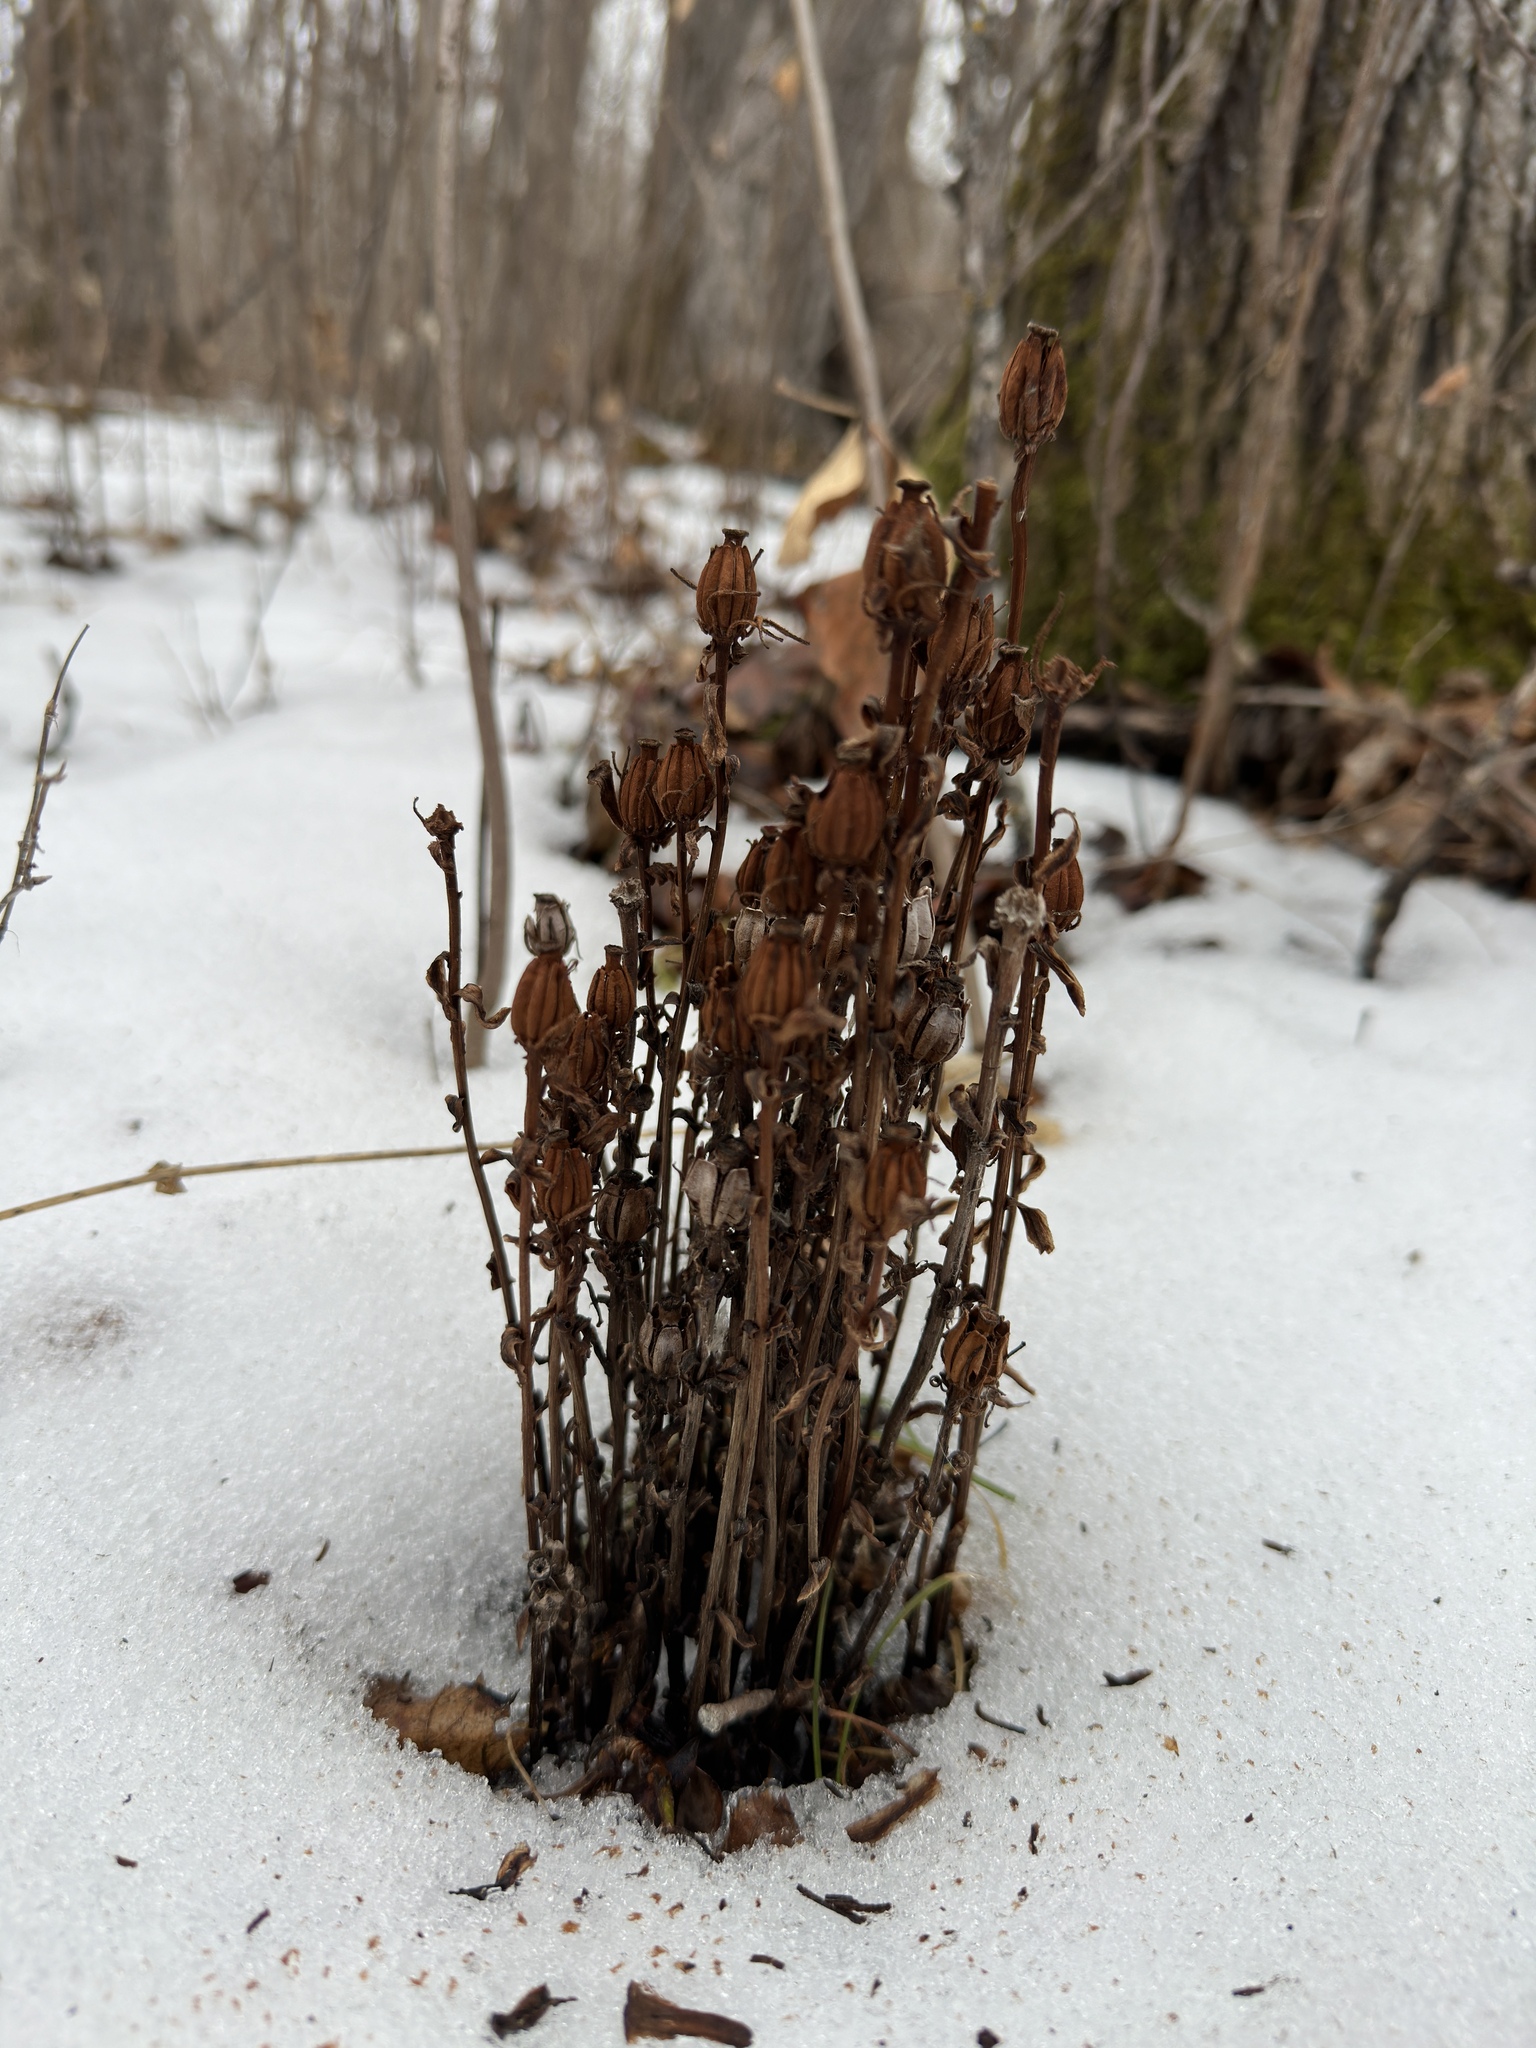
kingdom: Plantae
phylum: Tracheophyta
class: Magnoliopsida
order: Ericales
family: Ericaceae
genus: Monotropa
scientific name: Monotropa uniflora
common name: Convulsion root
